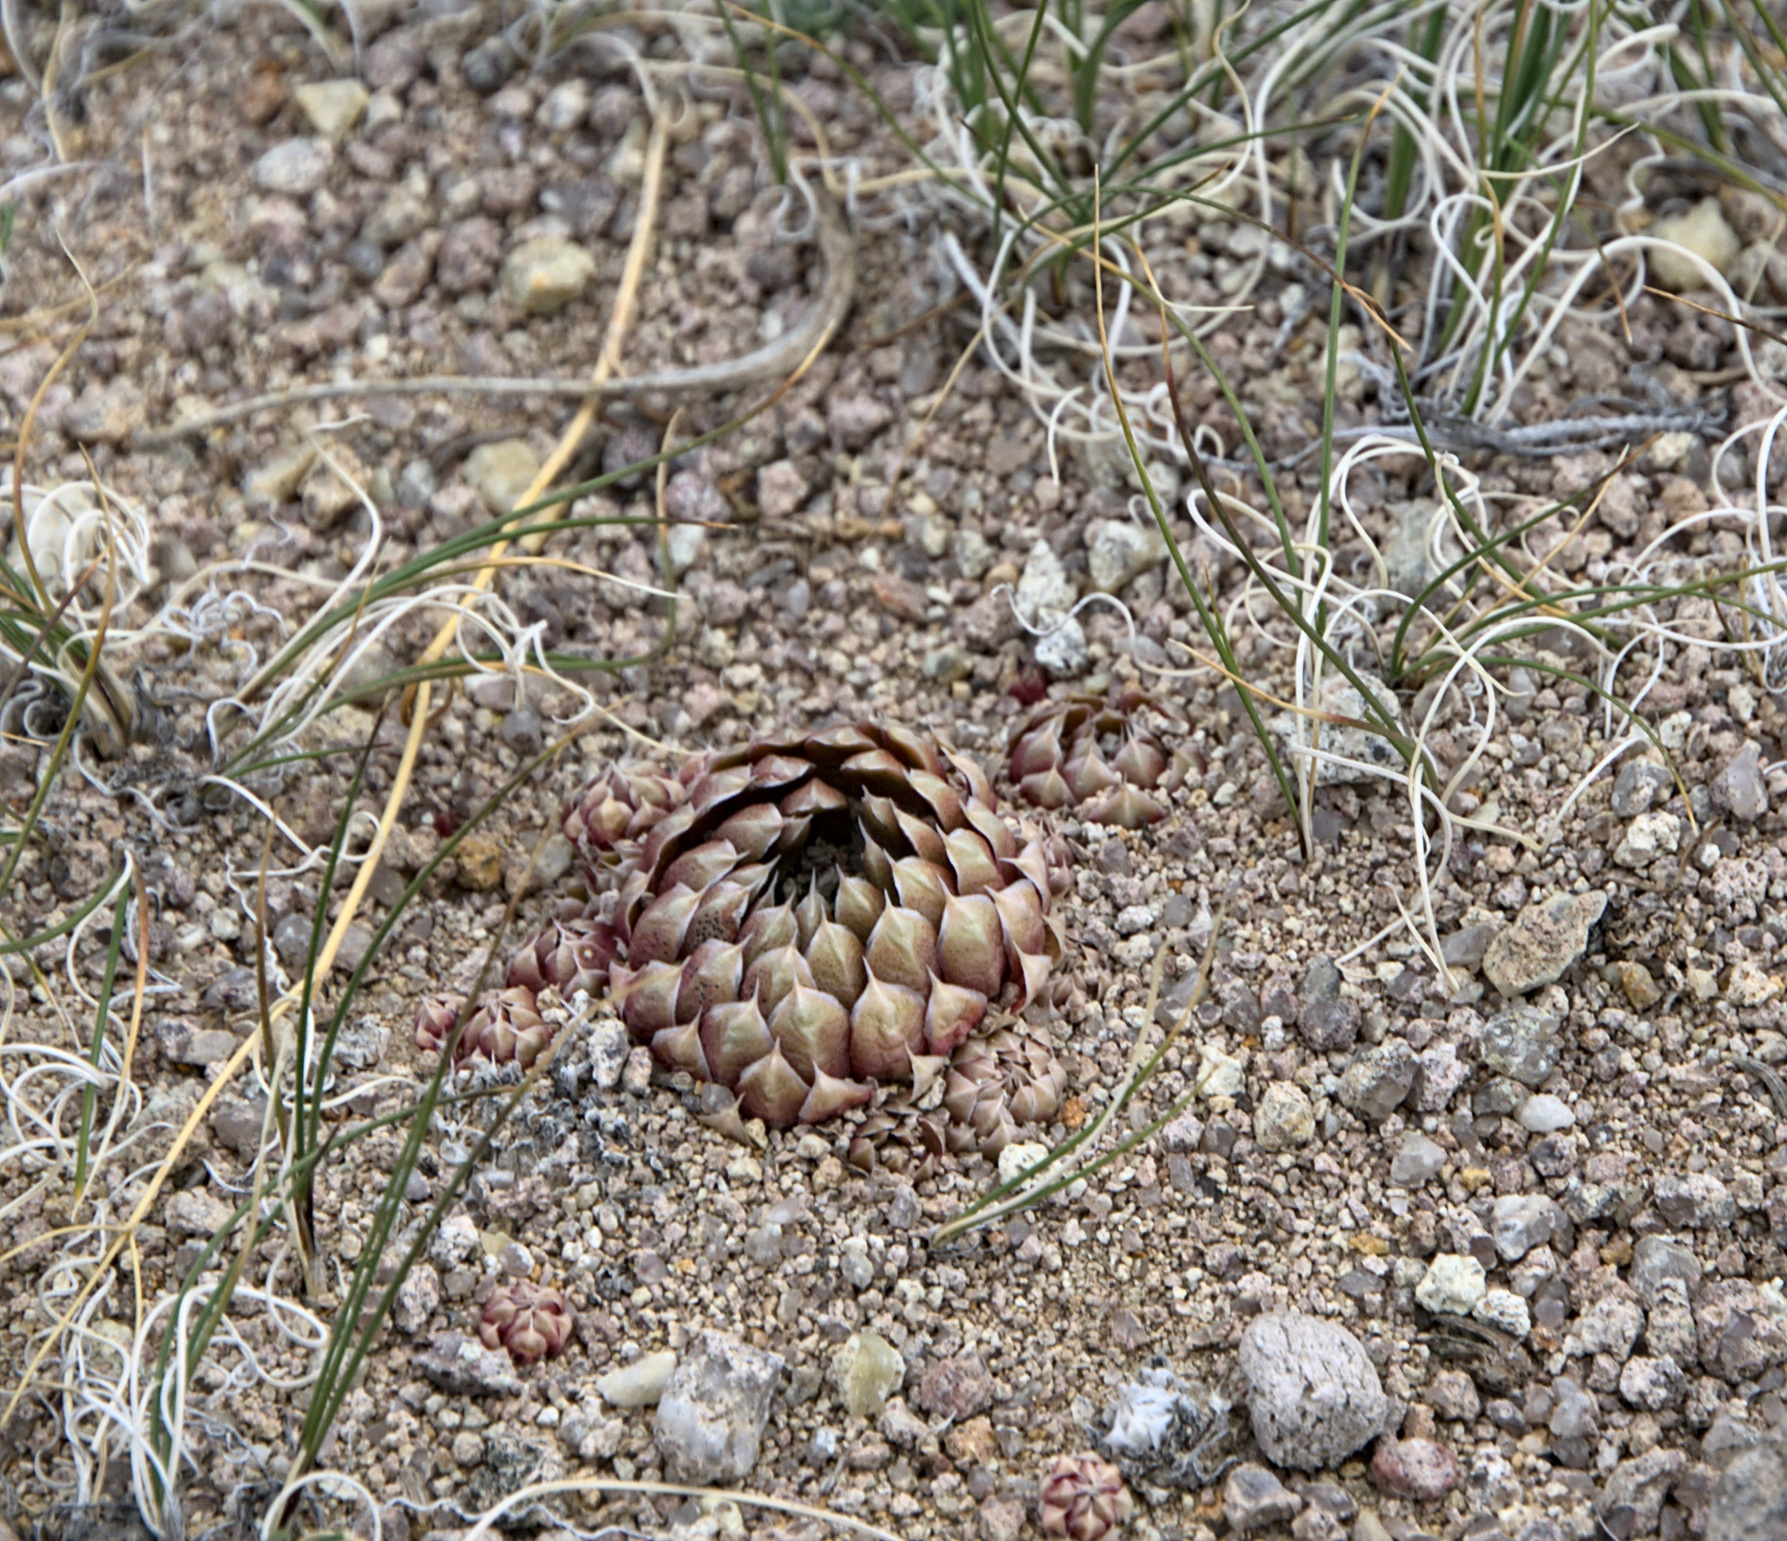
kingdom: Plantae
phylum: Tracheophyta
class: Magnoliopsida
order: Saxifragales
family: Crassulaceae
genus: Orostachys
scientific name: Orostachys spinosa
